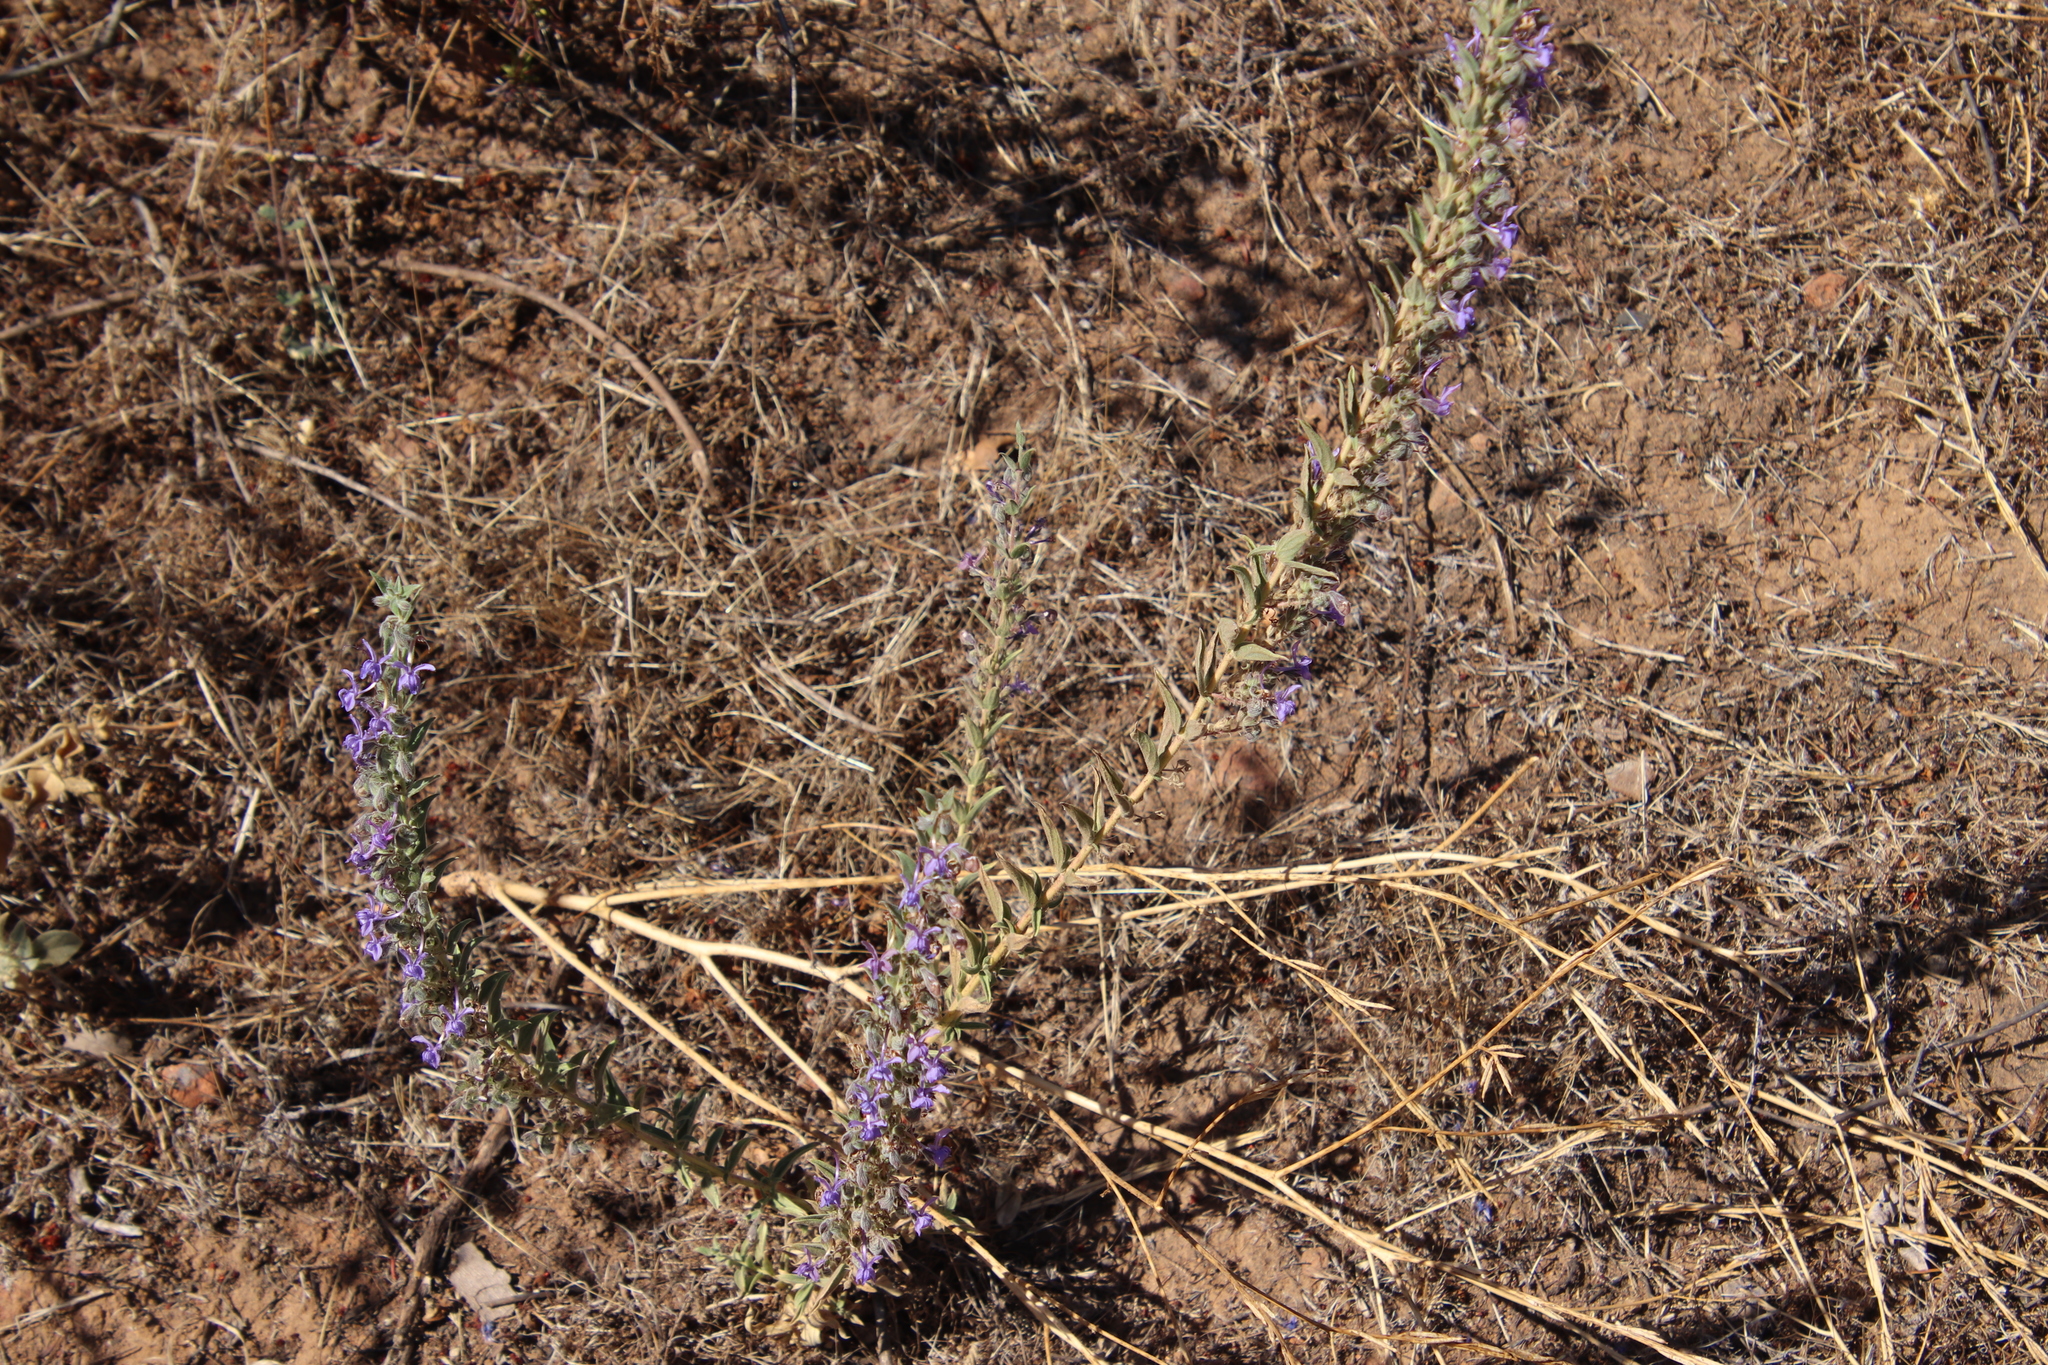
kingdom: Plantae
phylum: Tracheophyta
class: Magnoliopsida
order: Lamiales
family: Lamiaceae
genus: Trichostema
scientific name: Trichostema lanceolatum
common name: Vinegar-weed
